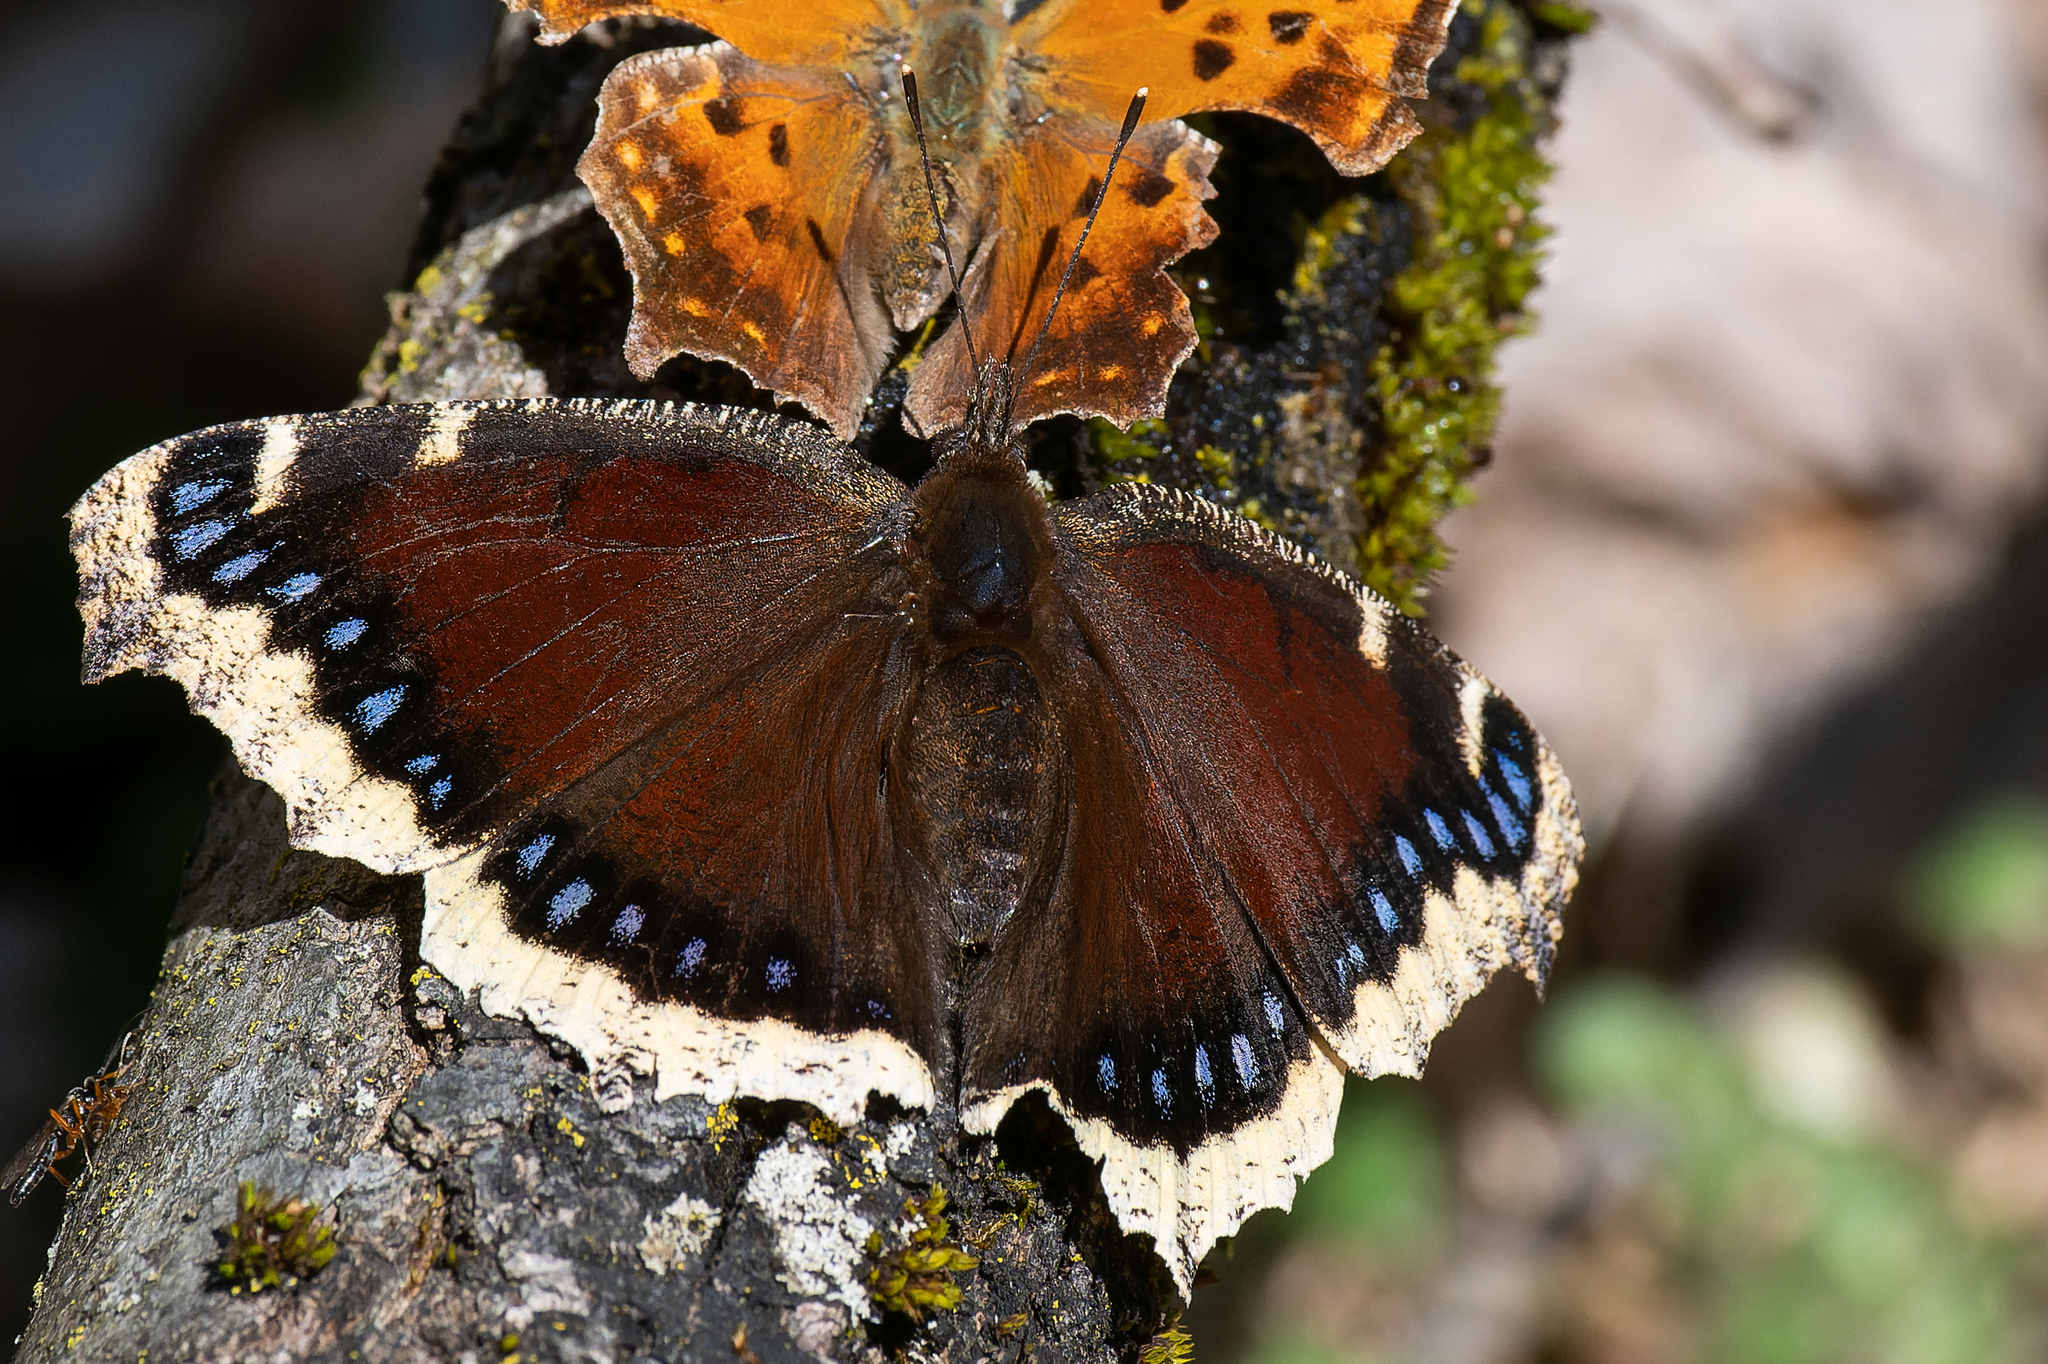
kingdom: Animalia
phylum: Arthropoda
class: Insecta
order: Lepidoptera
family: Nymphalidae
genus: Nymphalis
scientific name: Nymphalis antiopa
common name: Camberwell beauty
